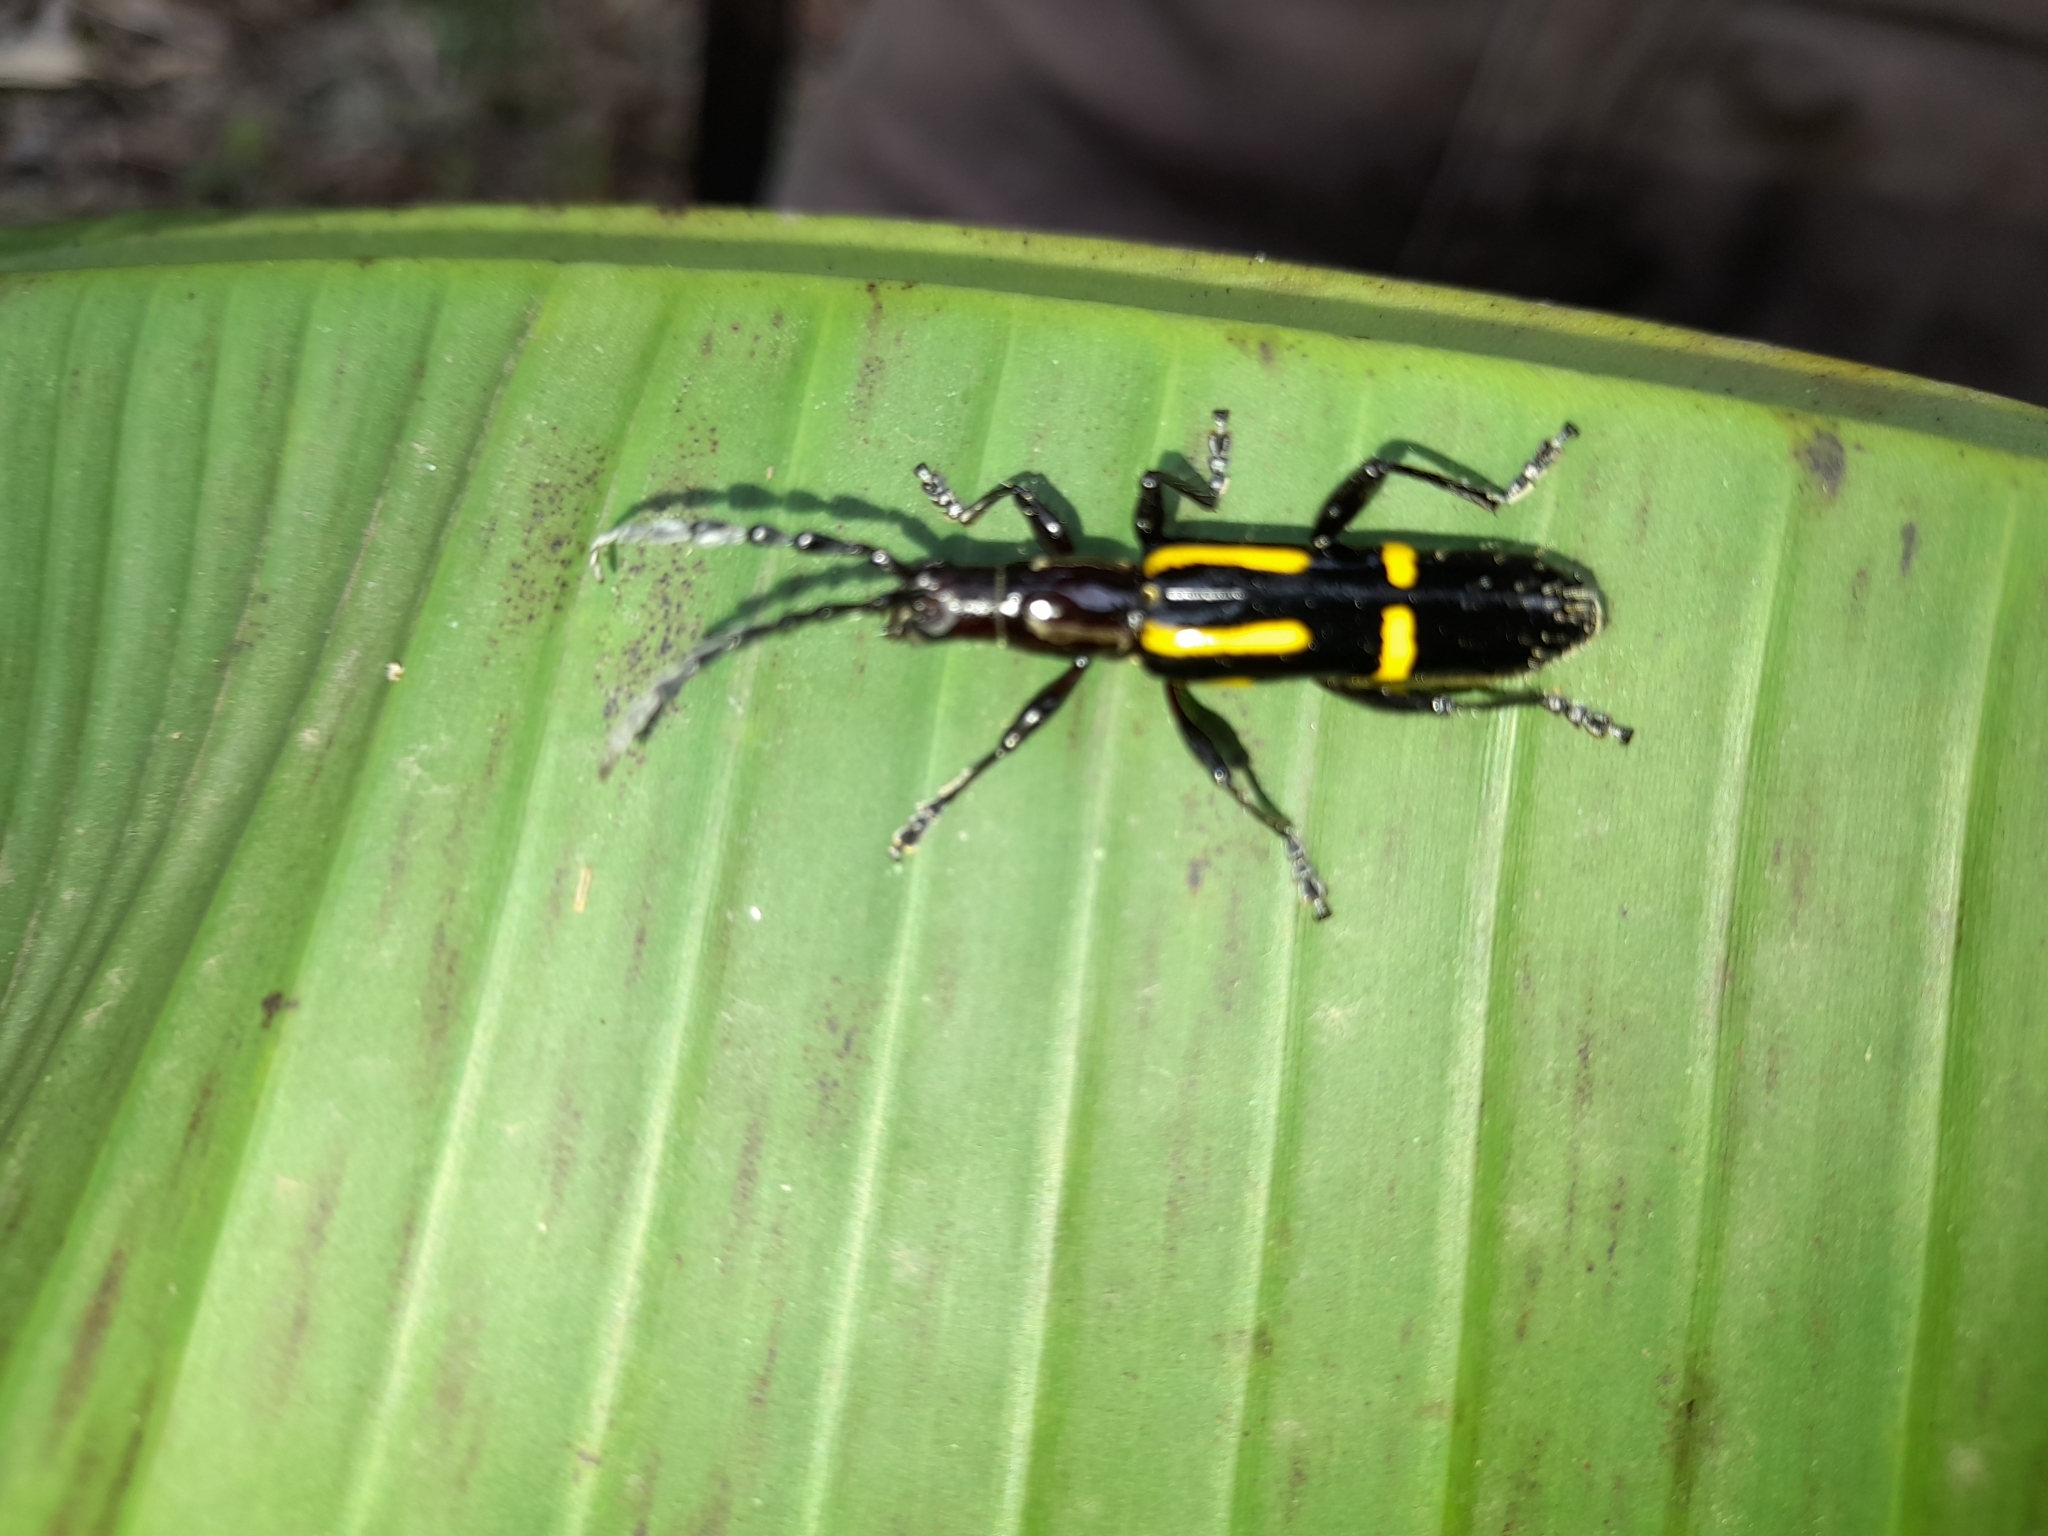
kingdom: Animalia
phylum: Arthropoda
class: Insecta
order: Coleoptera
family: Cerambycidae
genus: Platyarthron
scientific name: Platyarthron semivittatum
